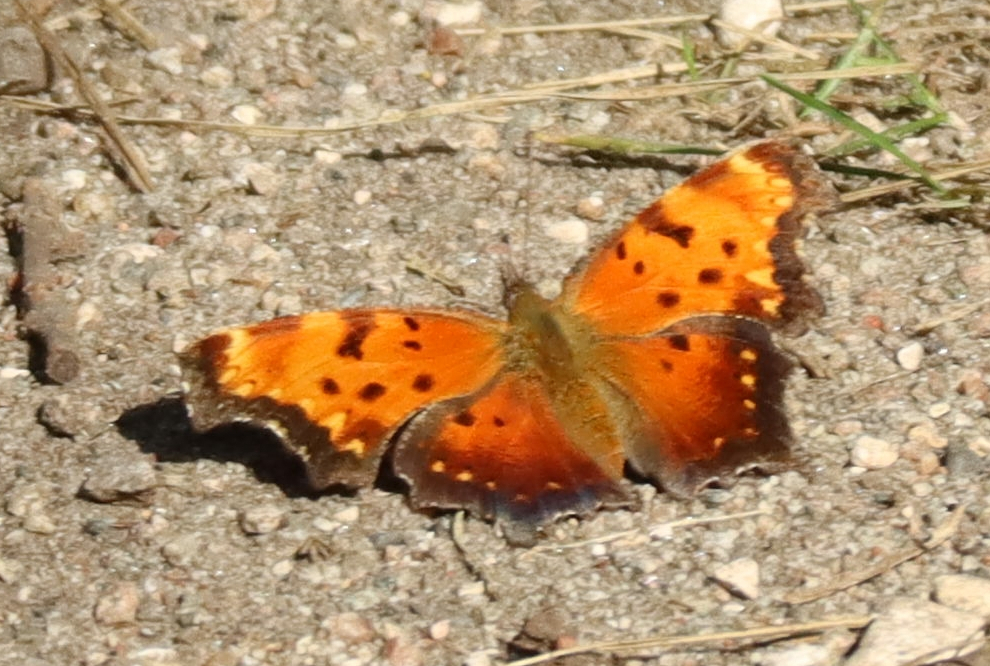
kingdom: Animalia
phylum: Arthropoda
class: Insecta
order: Lepidoptera
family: Nymphalidae
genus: Polygonia
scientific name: Polygonia comma
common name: Eastern comma
